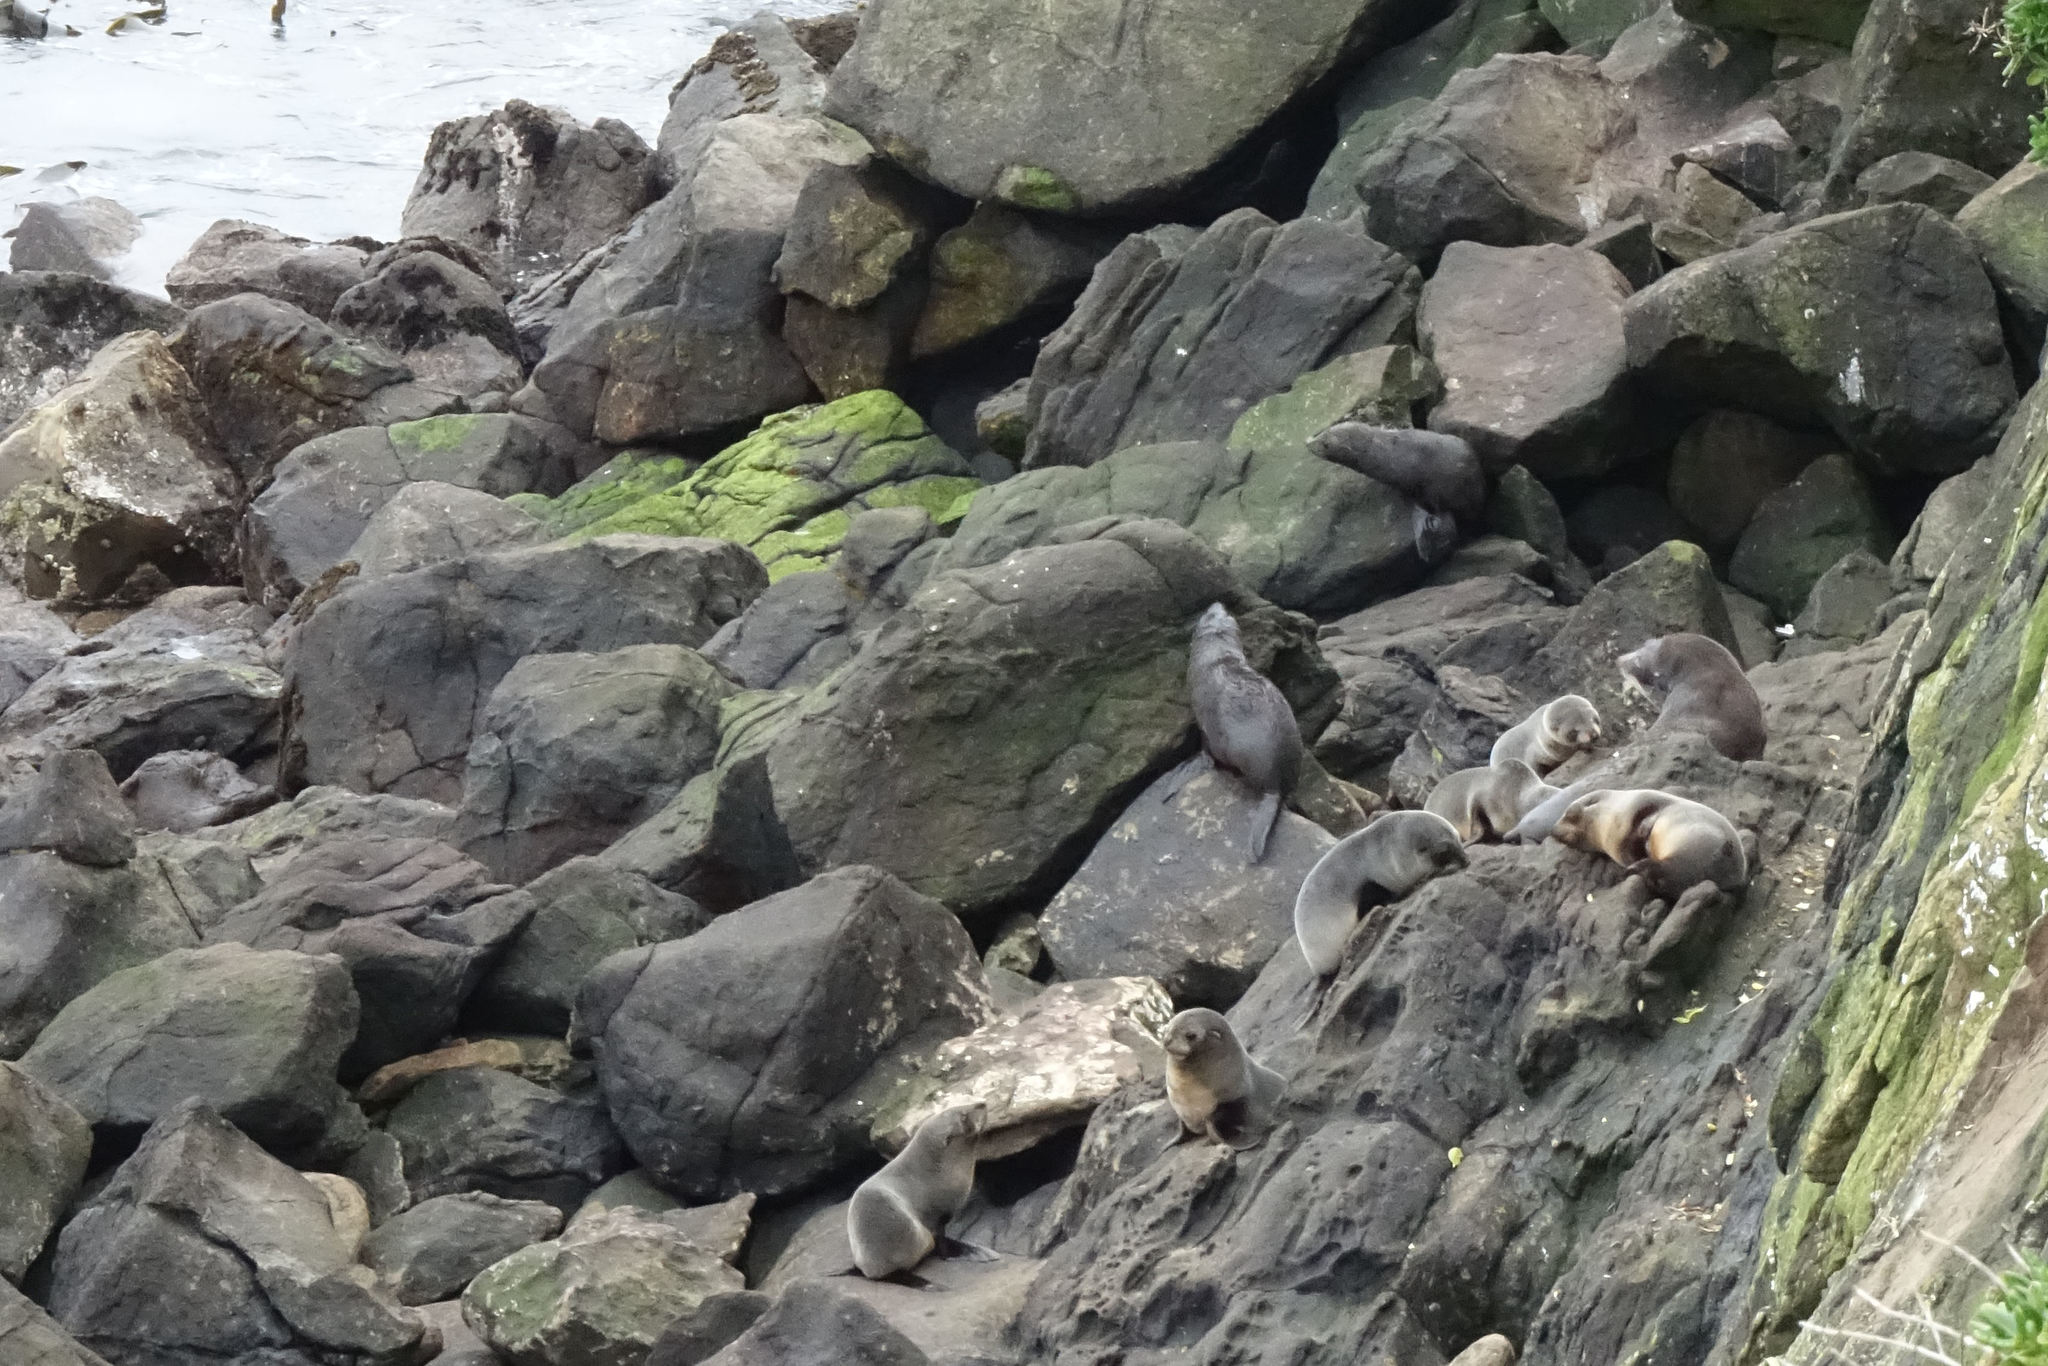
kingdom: Animalia
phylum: Chordata
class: Mammalia
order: Carnivora
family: Otariidae
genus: Arctocephalus
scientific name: Arctocephalus forsteri
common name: New zealand fur seal
